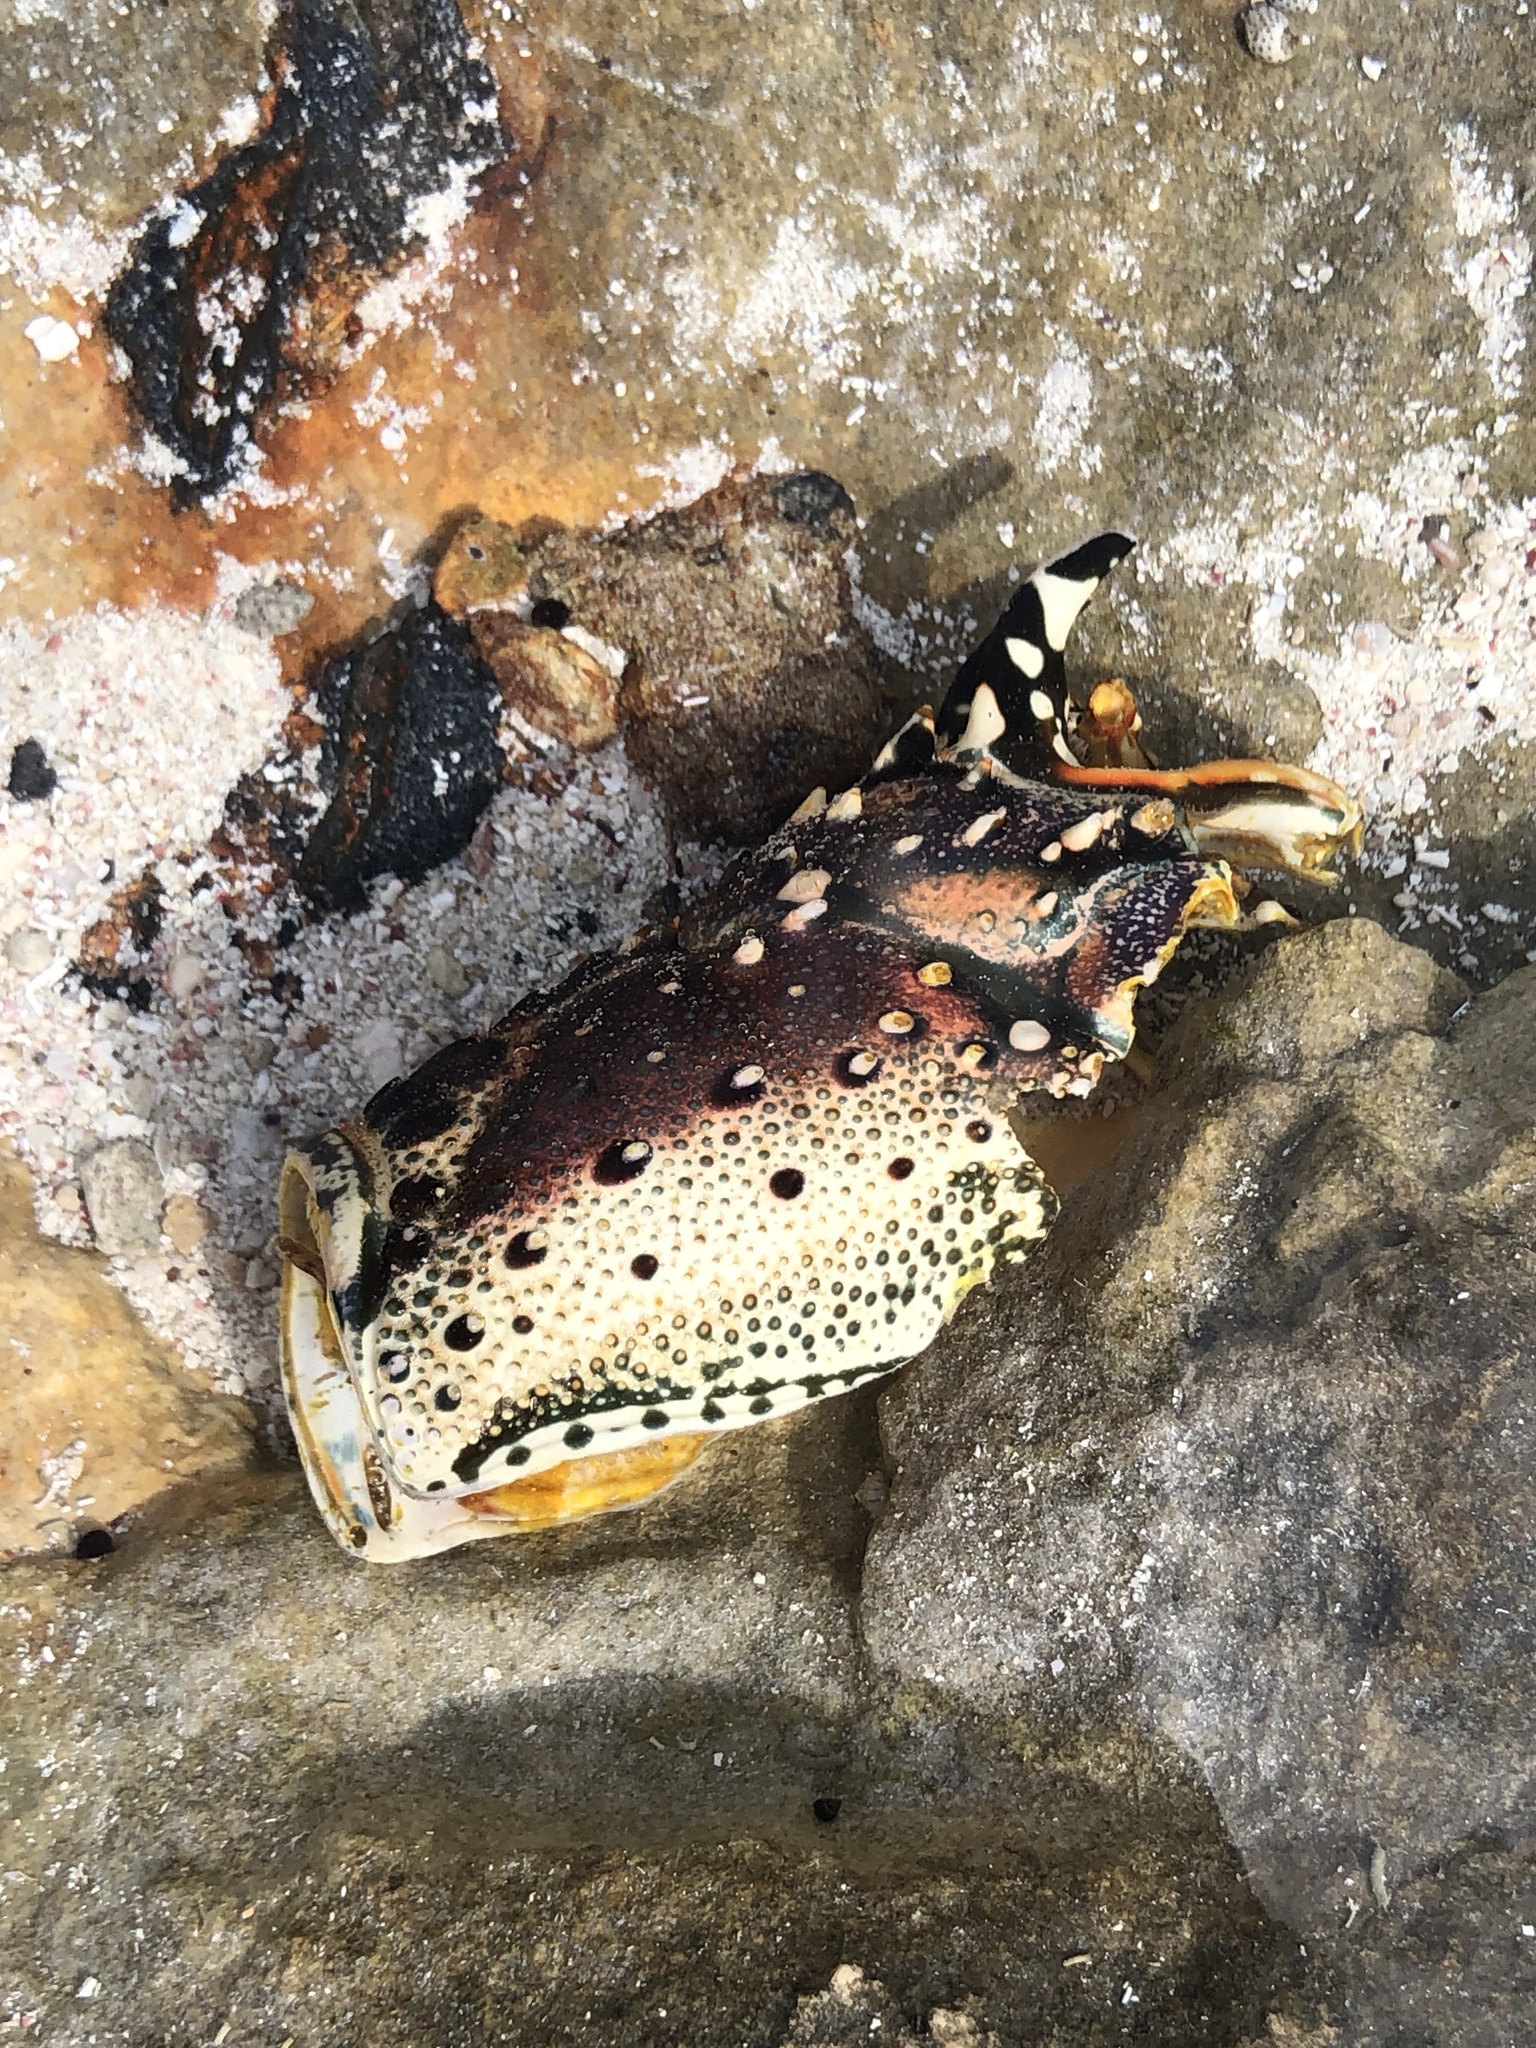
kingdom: Animalia
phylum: Arthropoda
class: Malacostraca
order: Decapoda
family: Palinuridae
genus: Panulirus
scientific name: Panulirus argus
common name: Caribbean spiny lobster
